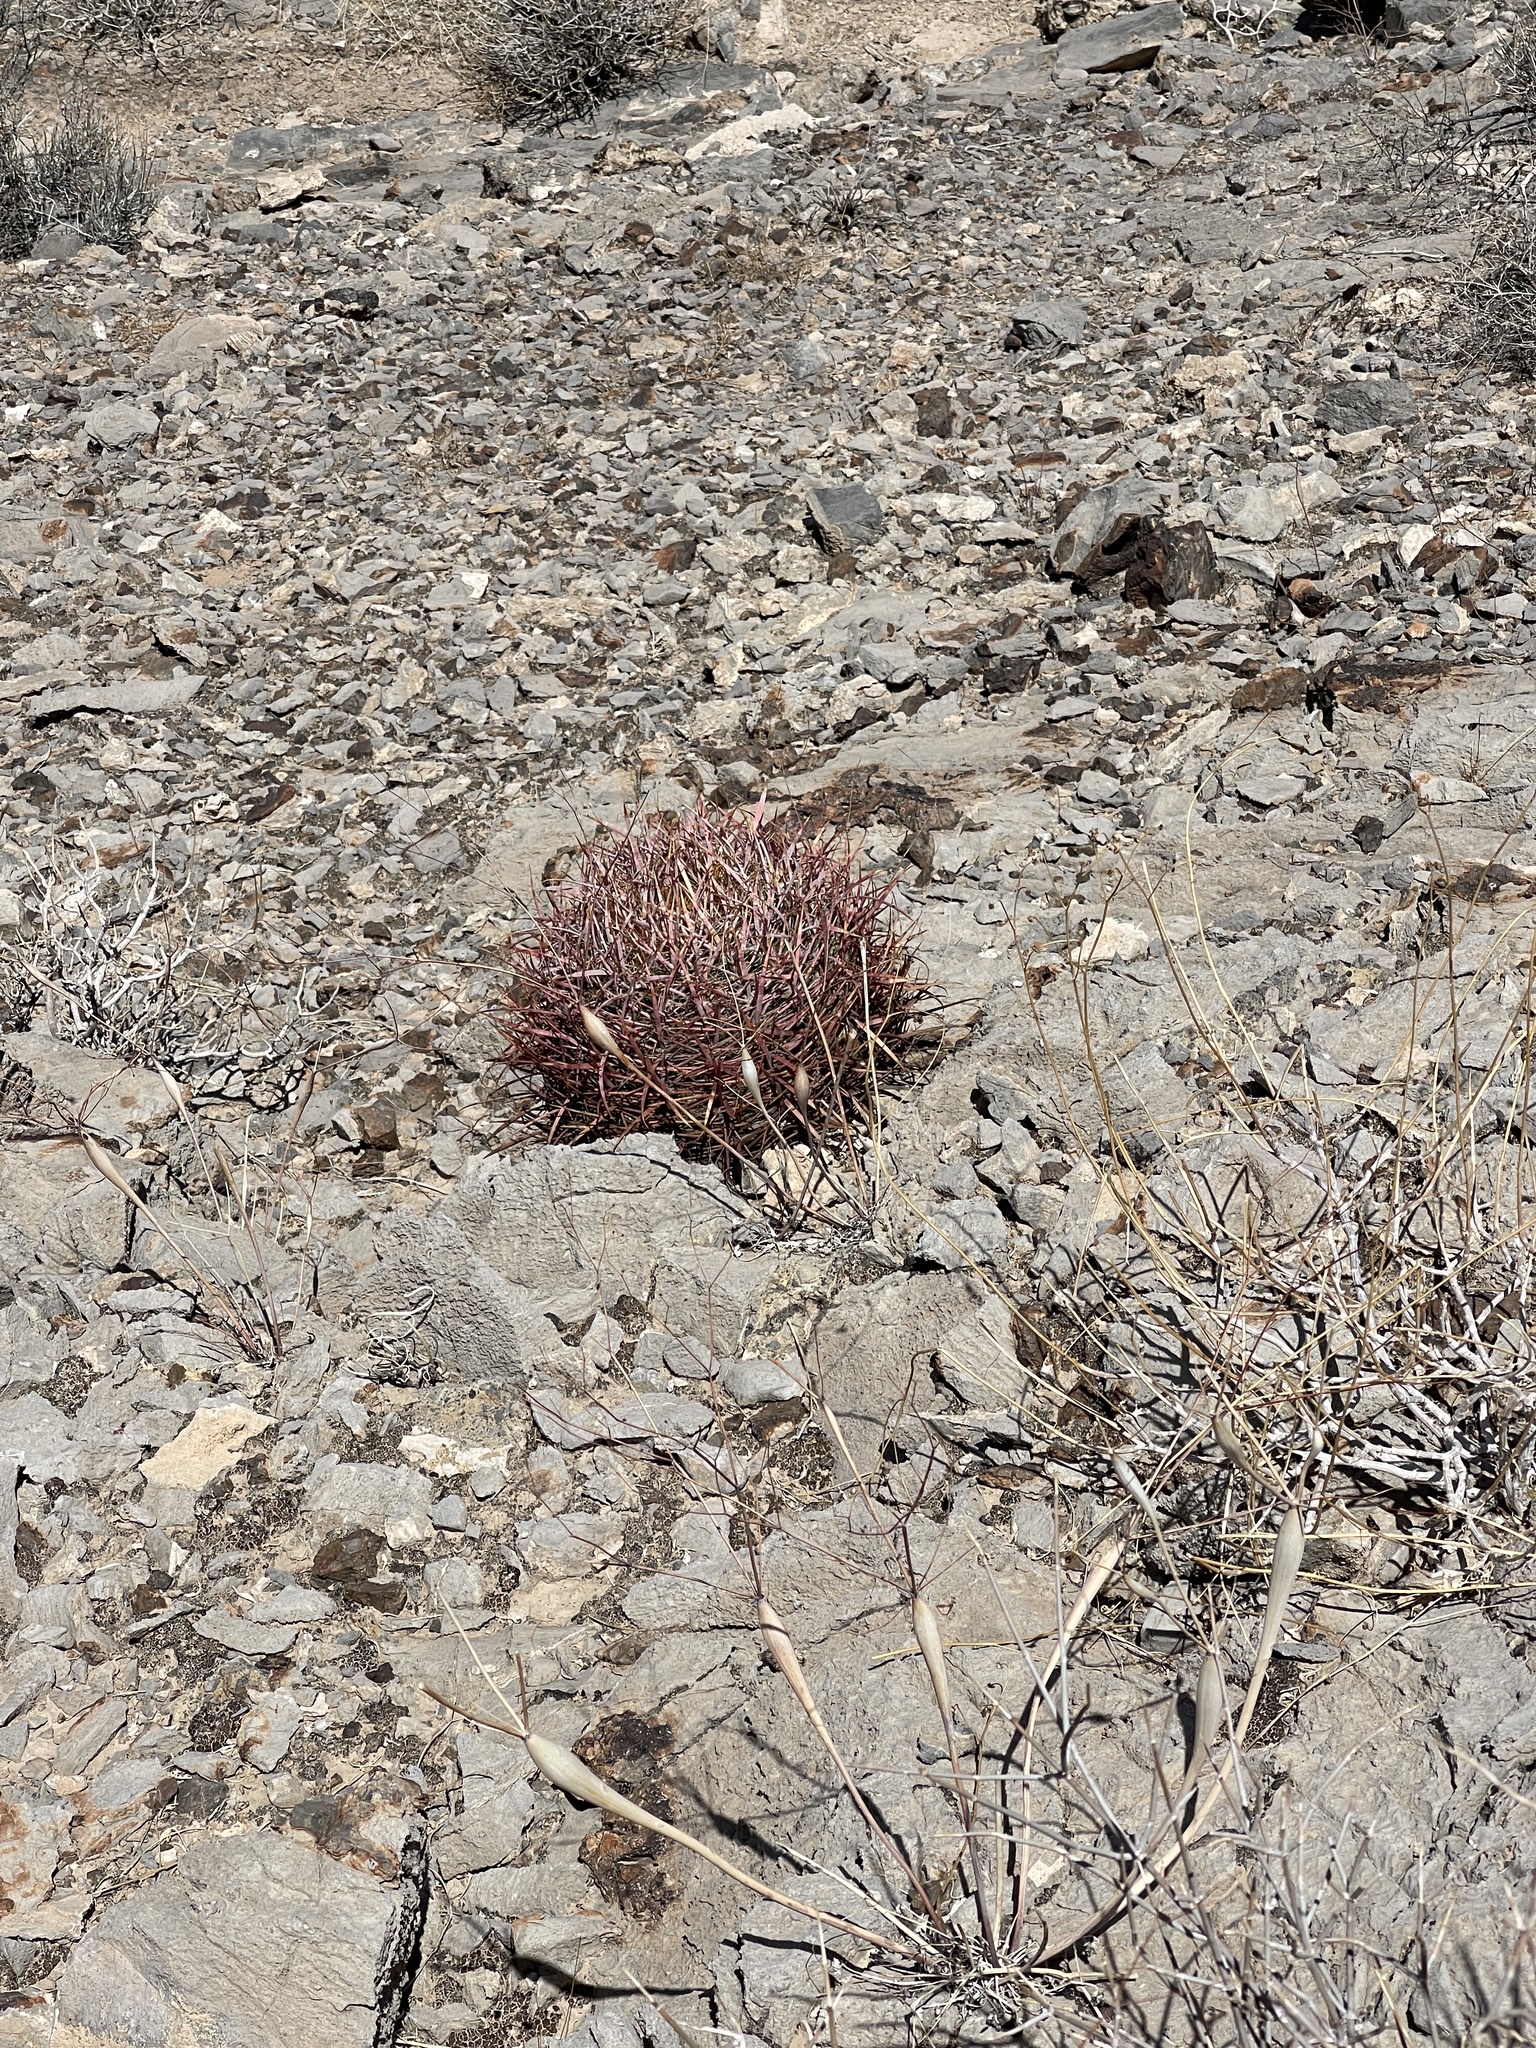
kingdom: Plantae
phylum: Tracheophyta
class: Magnoliopsida
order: Caryophyllales
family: Cactaceae
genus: Ferocactus
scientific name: Ferocactus cylindraceus
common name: California barrel cactus
